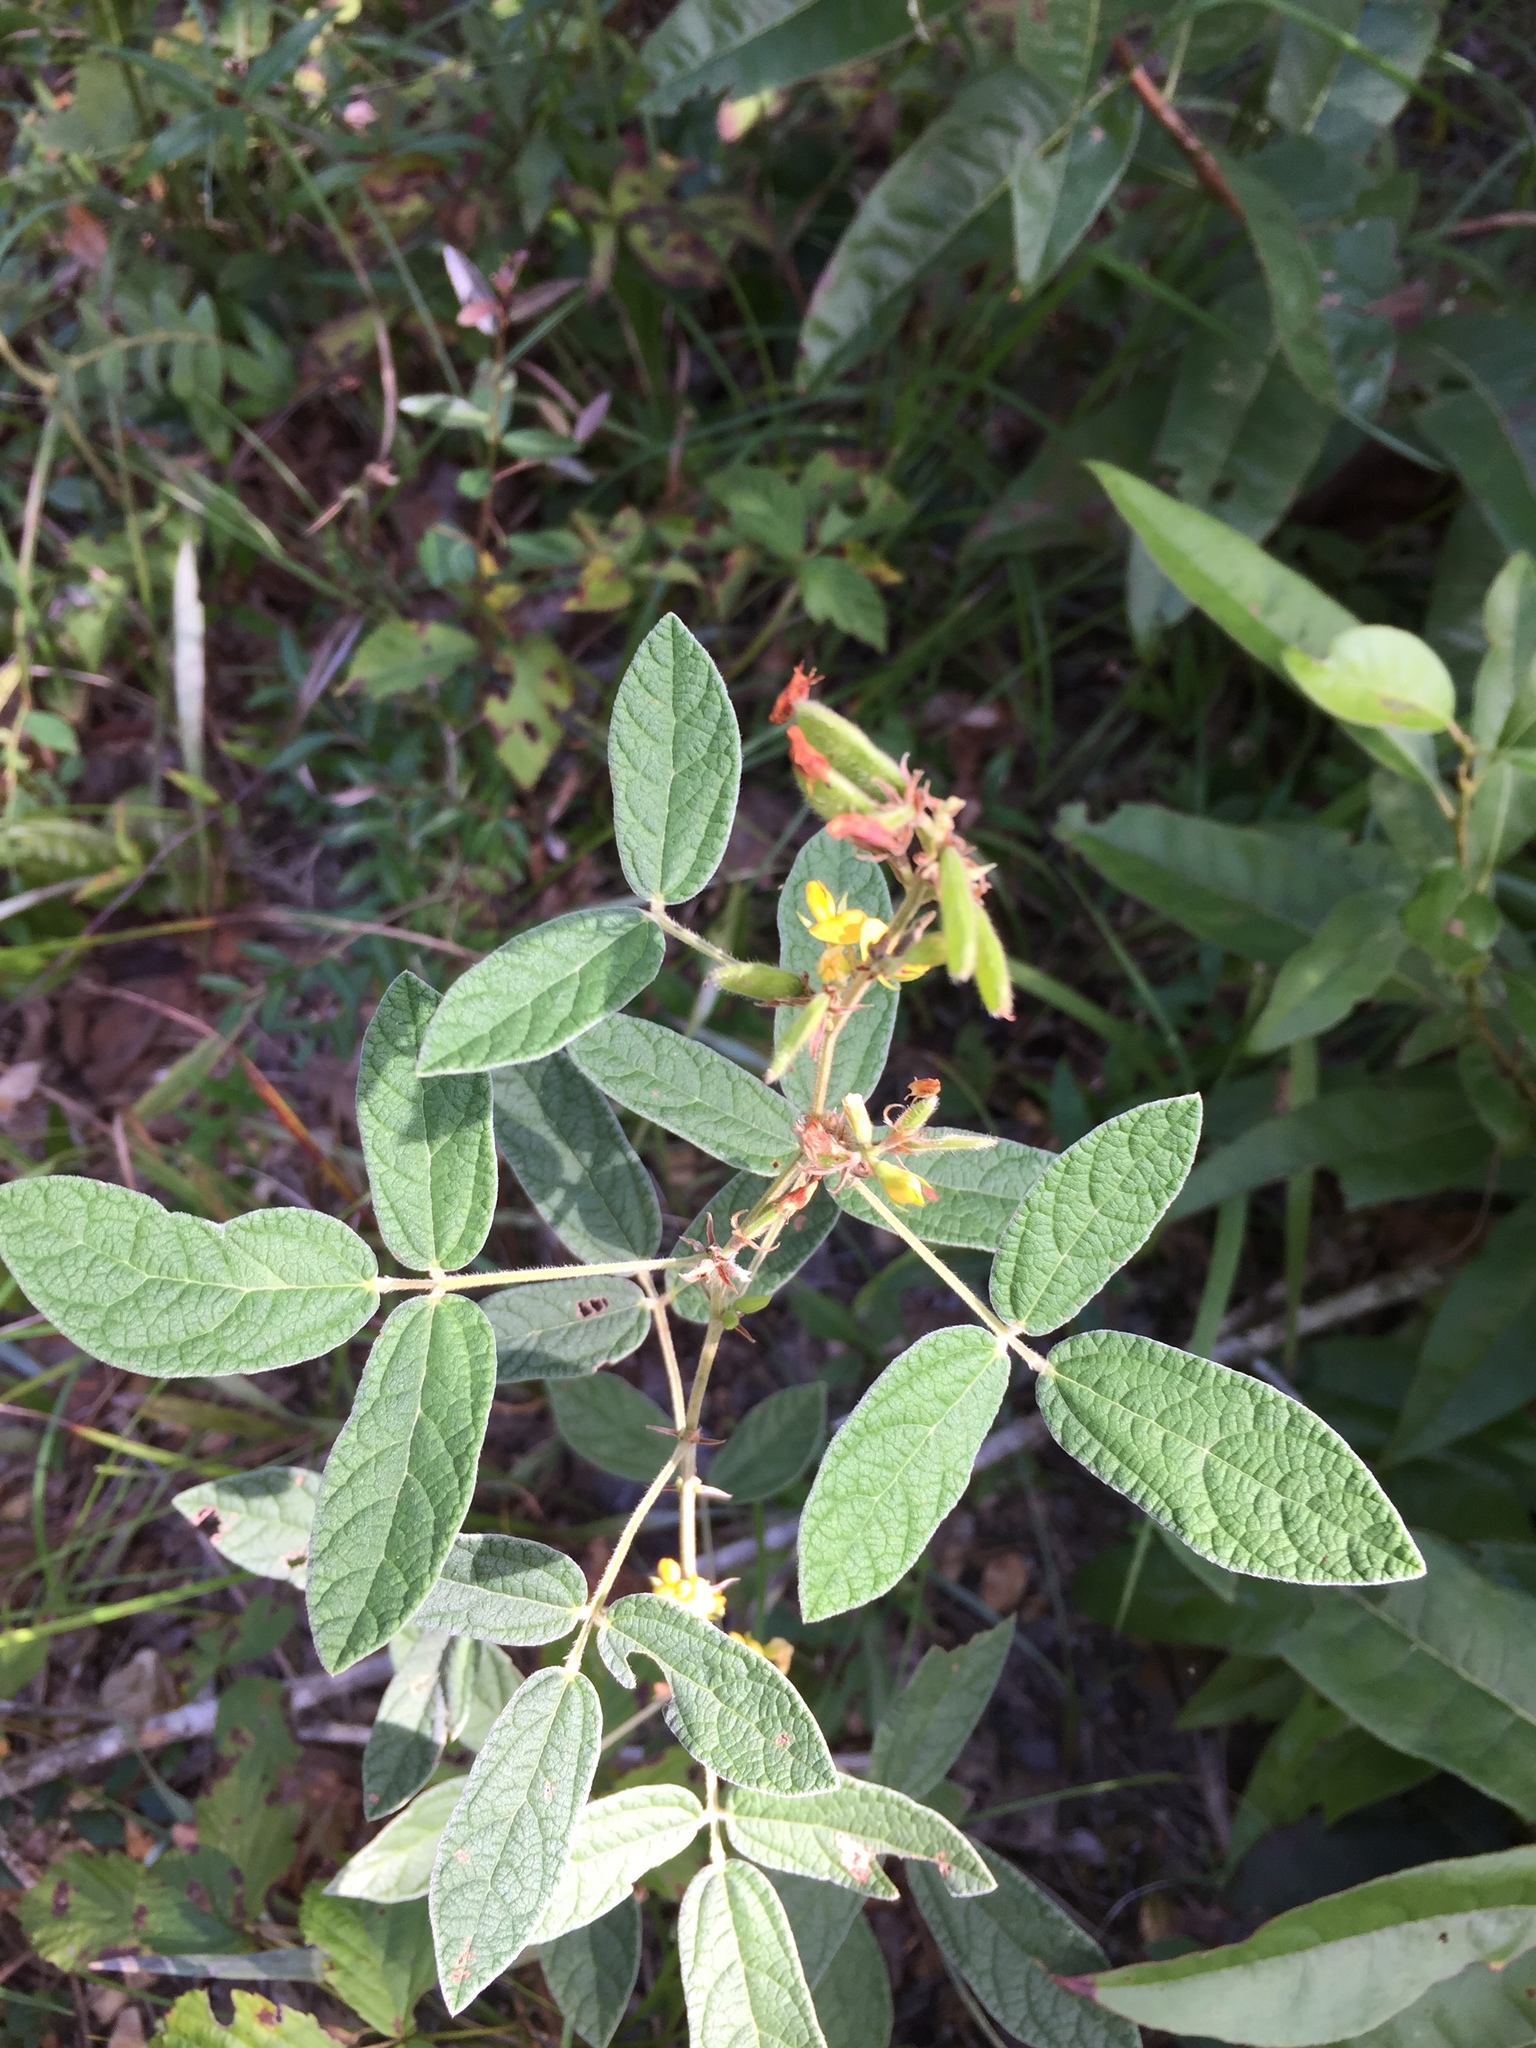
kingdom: Plantae
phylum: Tracheophyta
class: Magnoliopsida
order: Fabales
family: Fabaceae
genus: Rhynchosia
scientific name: Rhynchosia tomentosa
